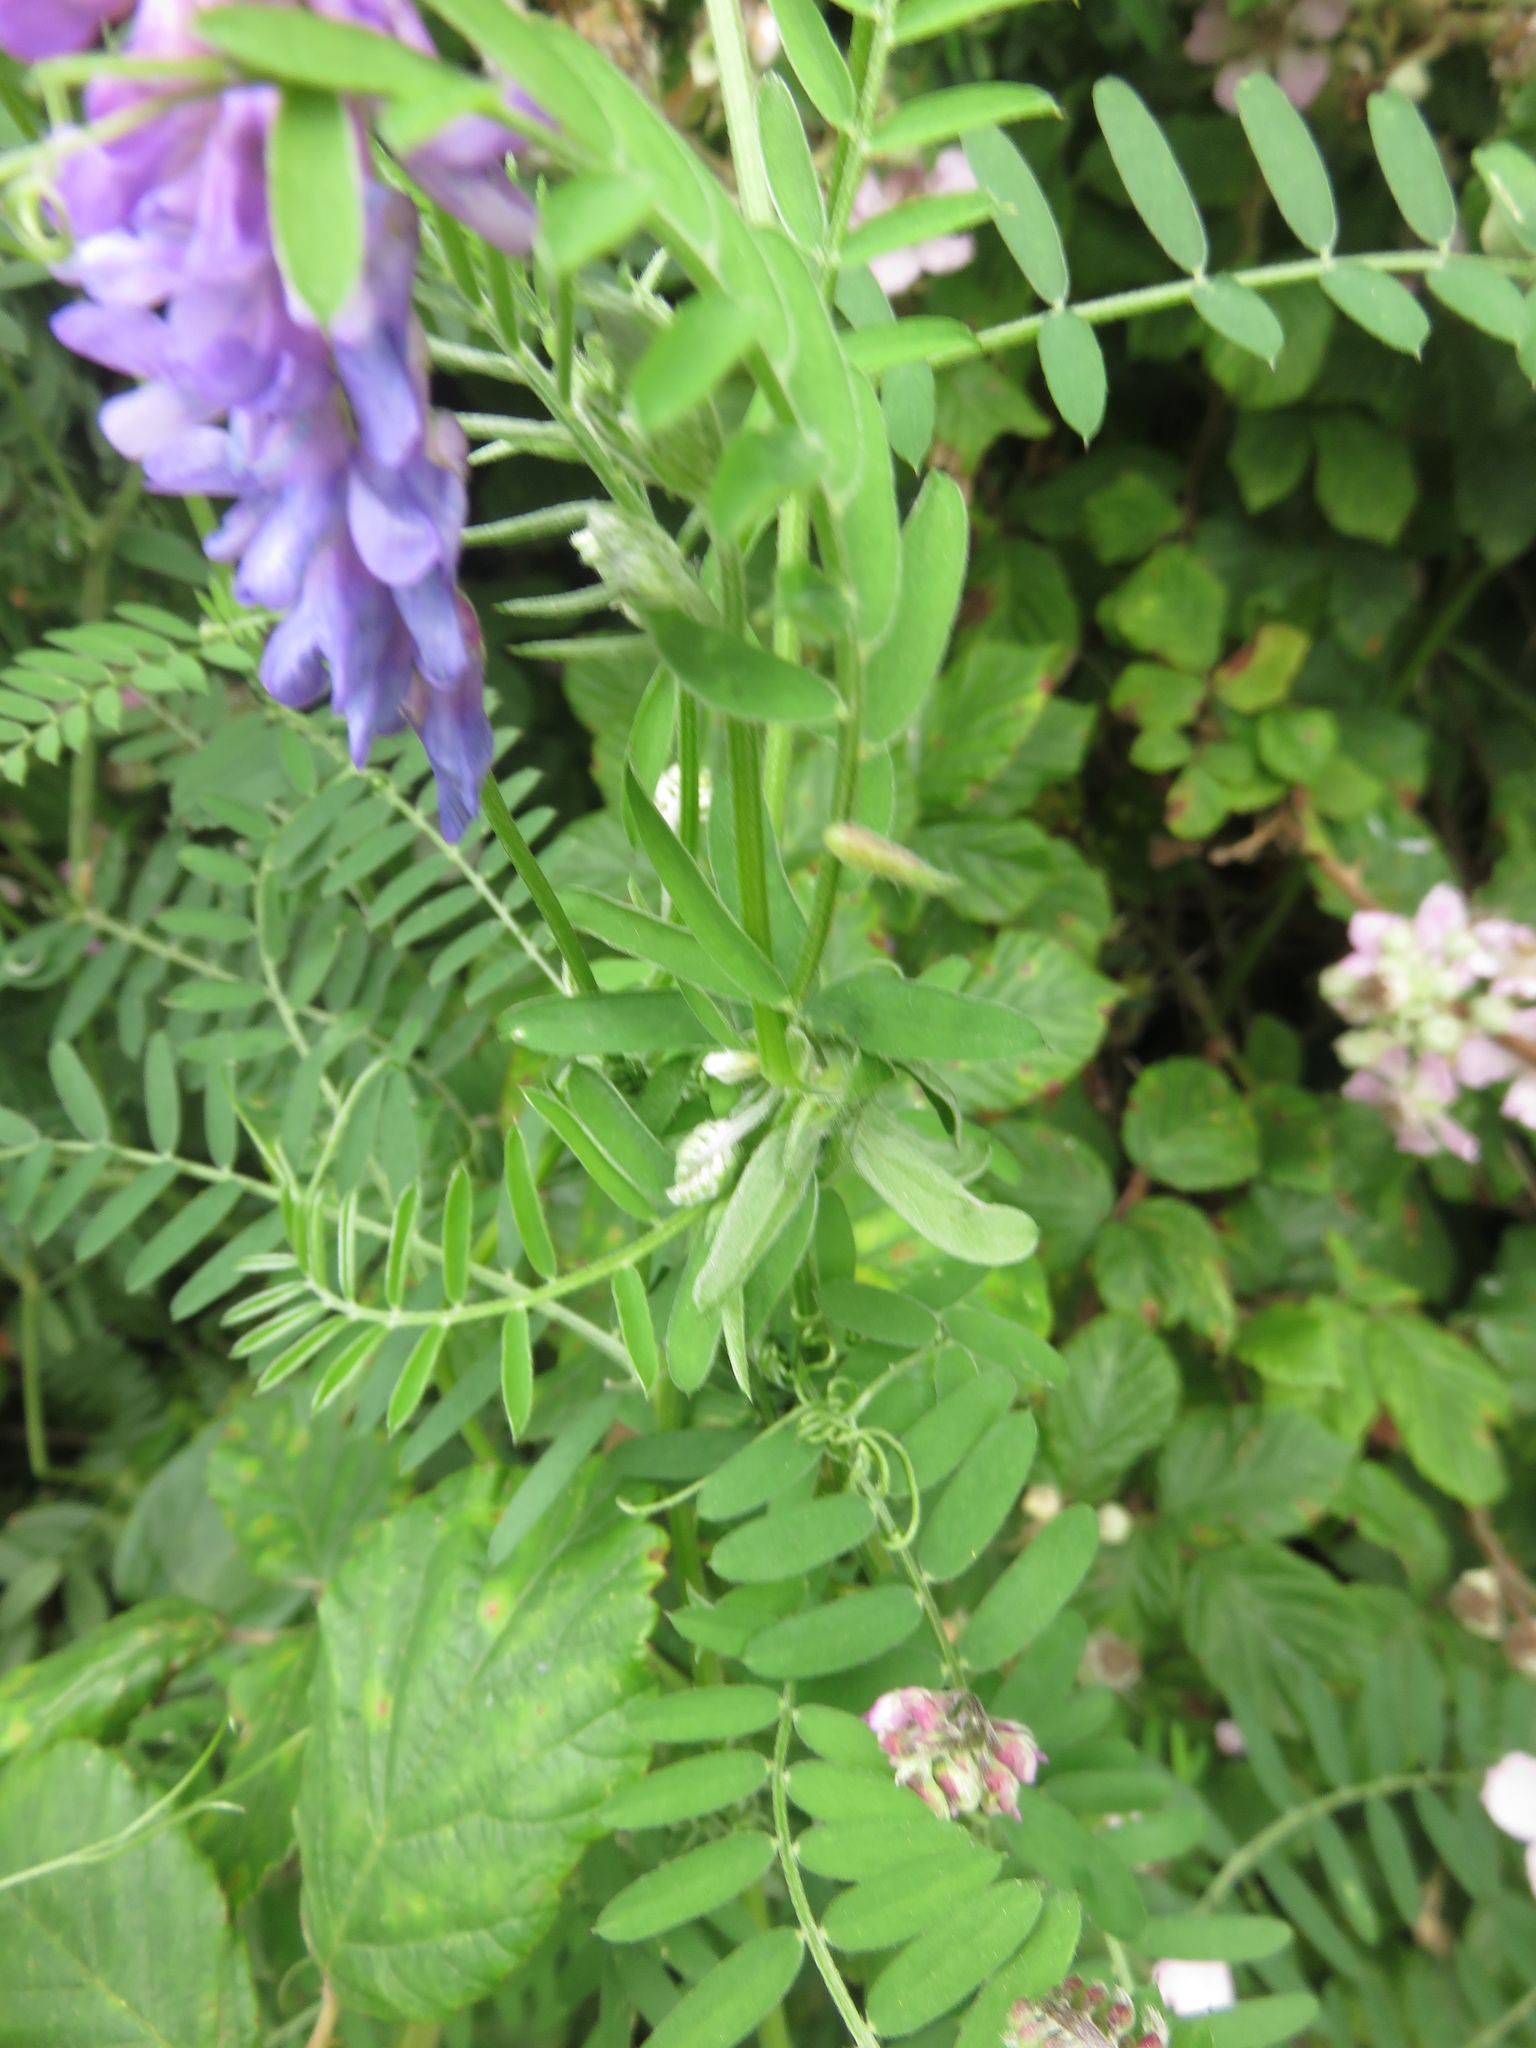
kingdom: Plantae
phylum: Tracheophyta
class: Magnoliopsida
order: Fabales
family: Fabaceae
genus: Vicia
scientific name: Vicia cracca
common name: Bird vetch
